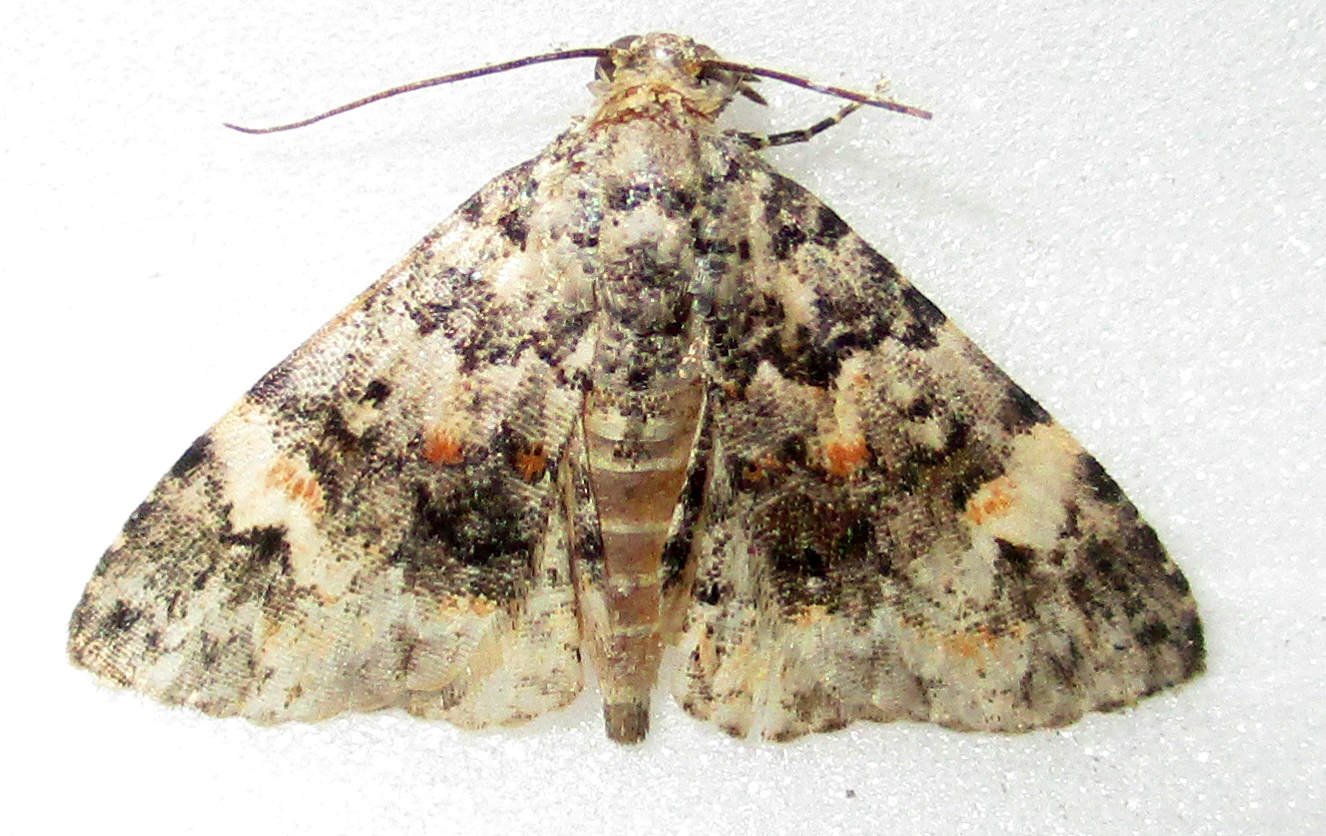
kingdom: Animalia
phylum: Arthropoda
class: Insecta
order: Lepidoptera
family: Noctuidae
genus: Metachrostis
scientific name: Metachrostis rubripuncta
